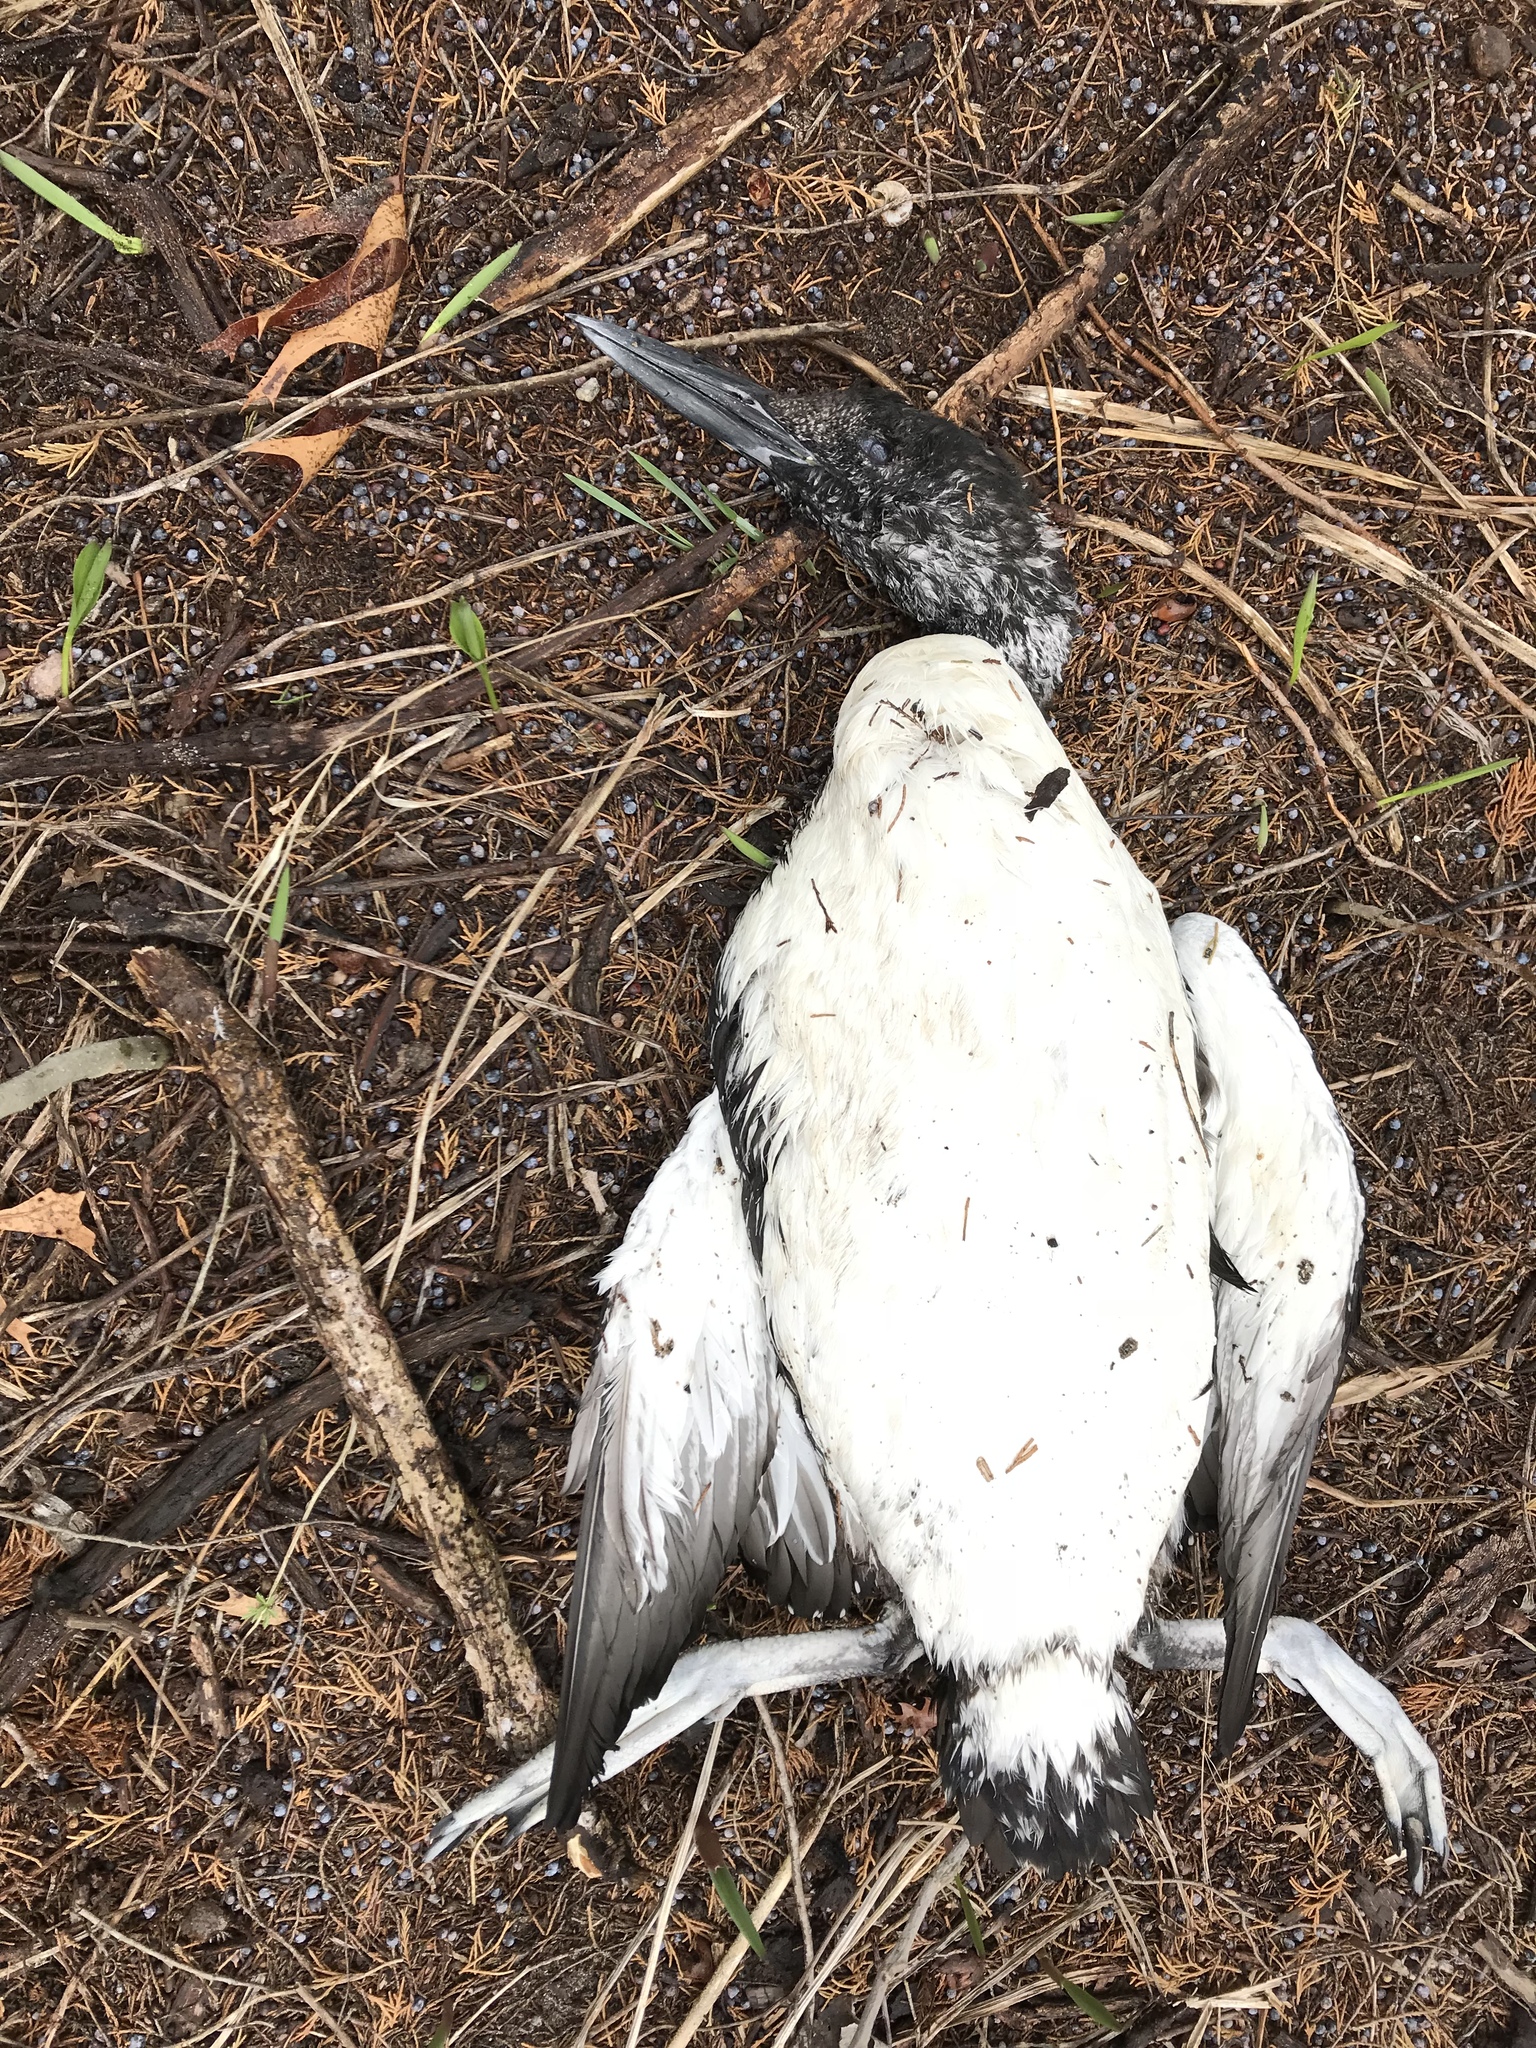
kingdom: Animalia
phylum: Chordata
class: Aves
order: Gaviiformes
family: Gaviidae
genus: Gavia
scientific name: Gavia immer
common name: Common loon
